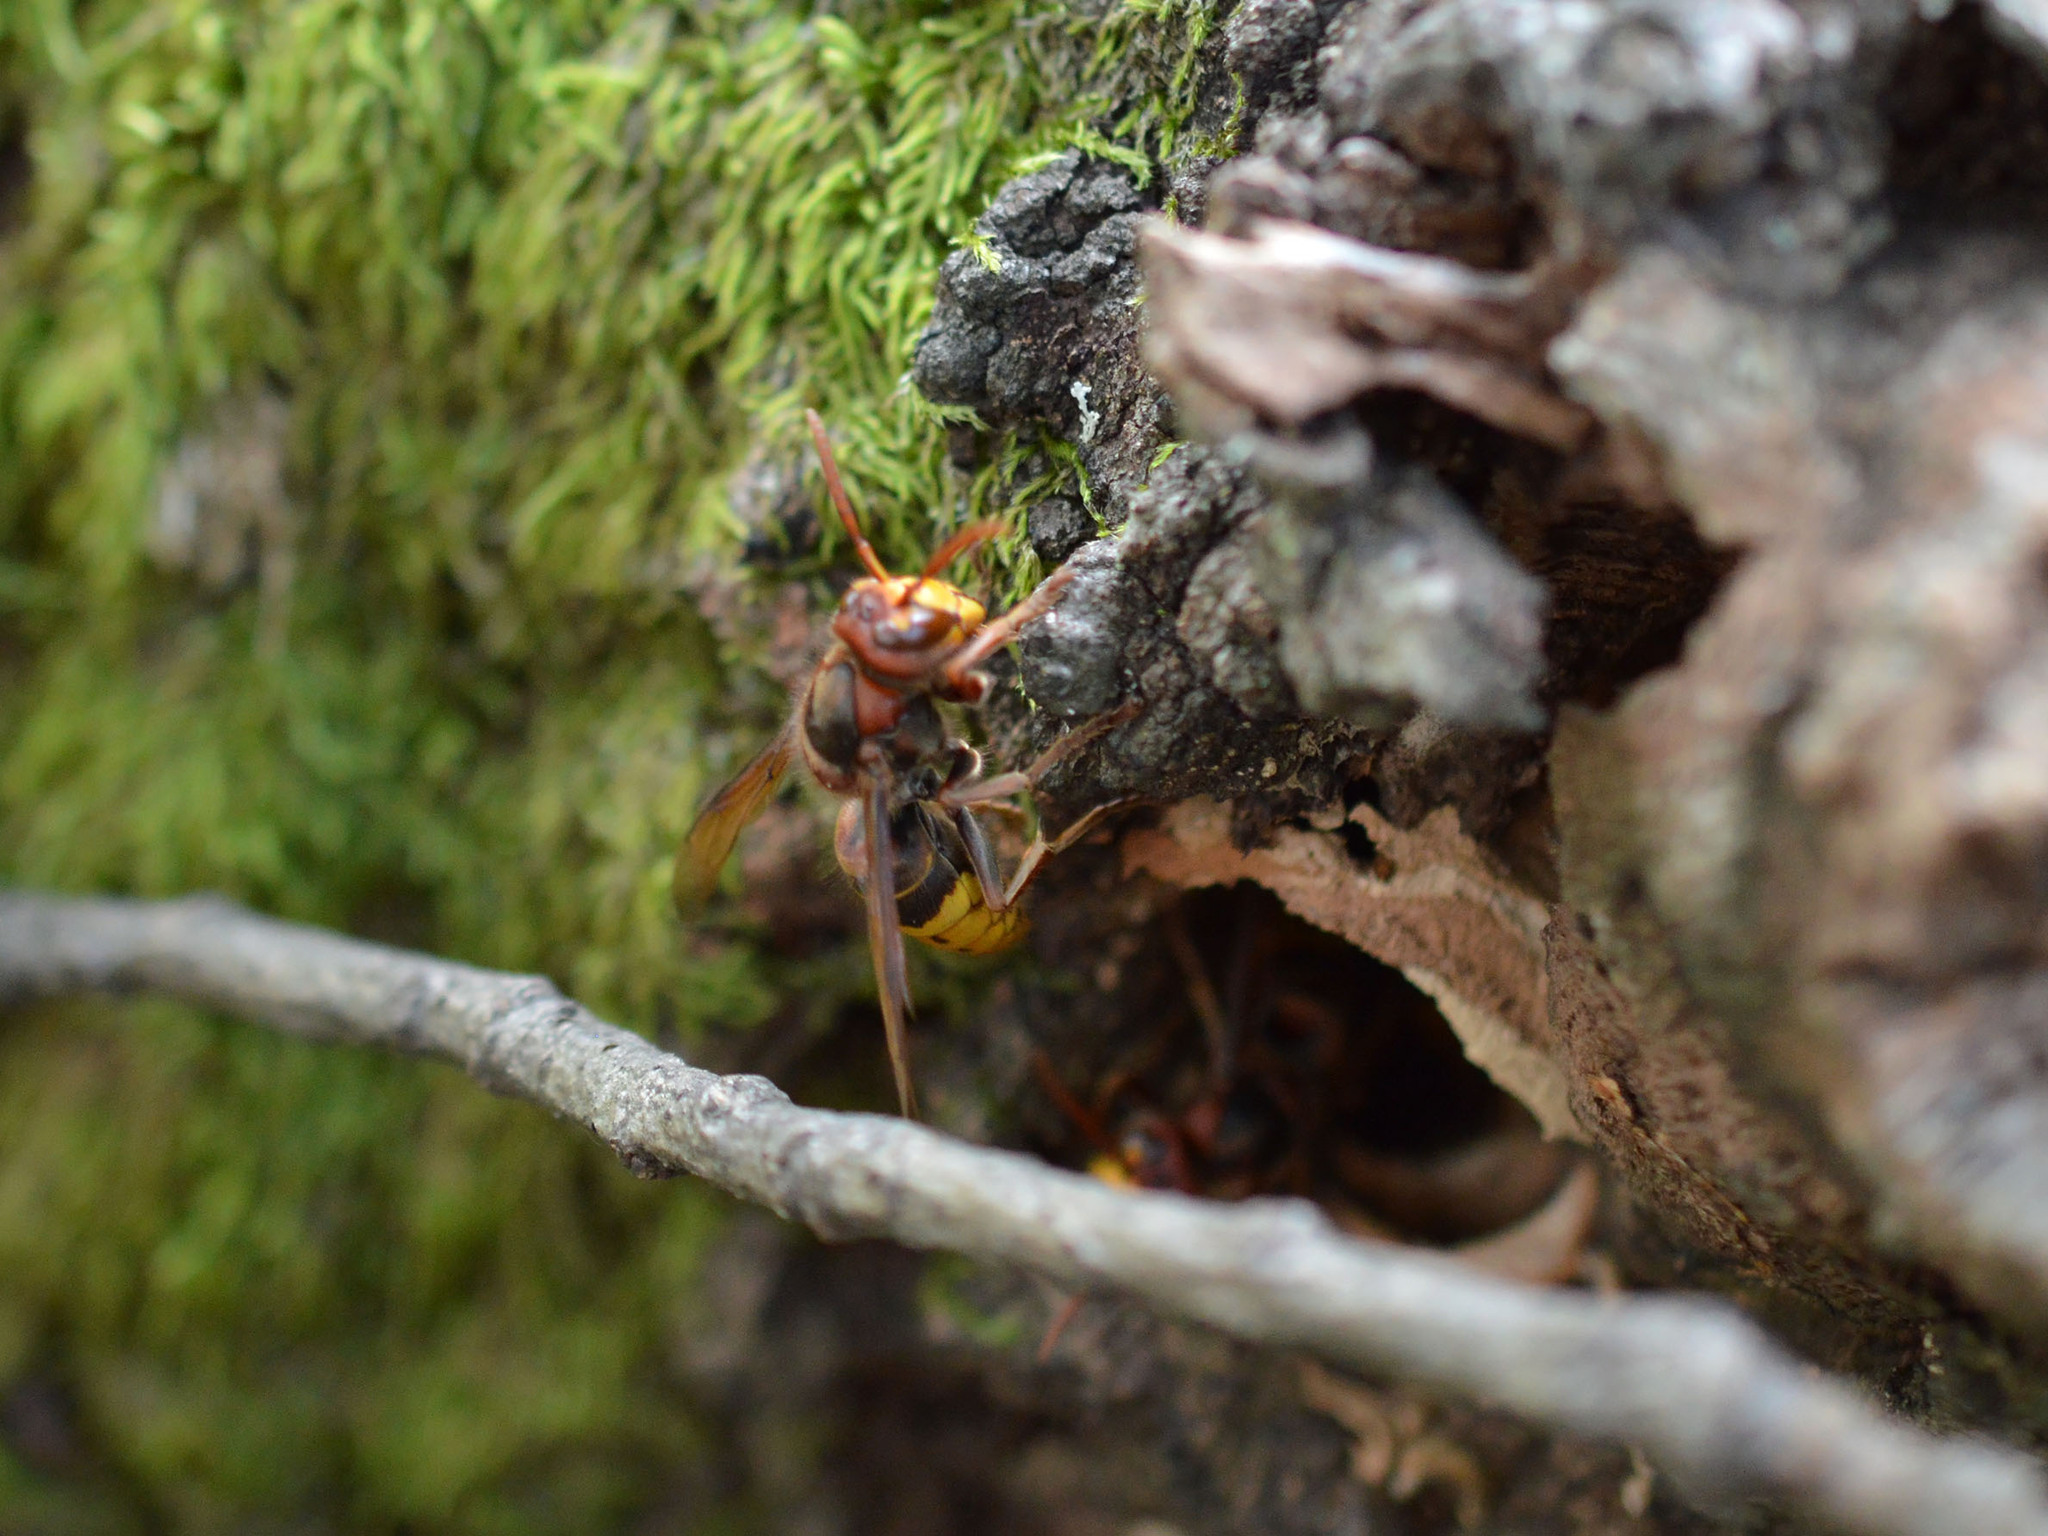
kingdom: Animalia
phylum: Arthropoda
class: Insecta
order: Hymenoptera
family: Vespidae
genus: Vespa
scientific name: Vespa crabro
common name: Hornet
